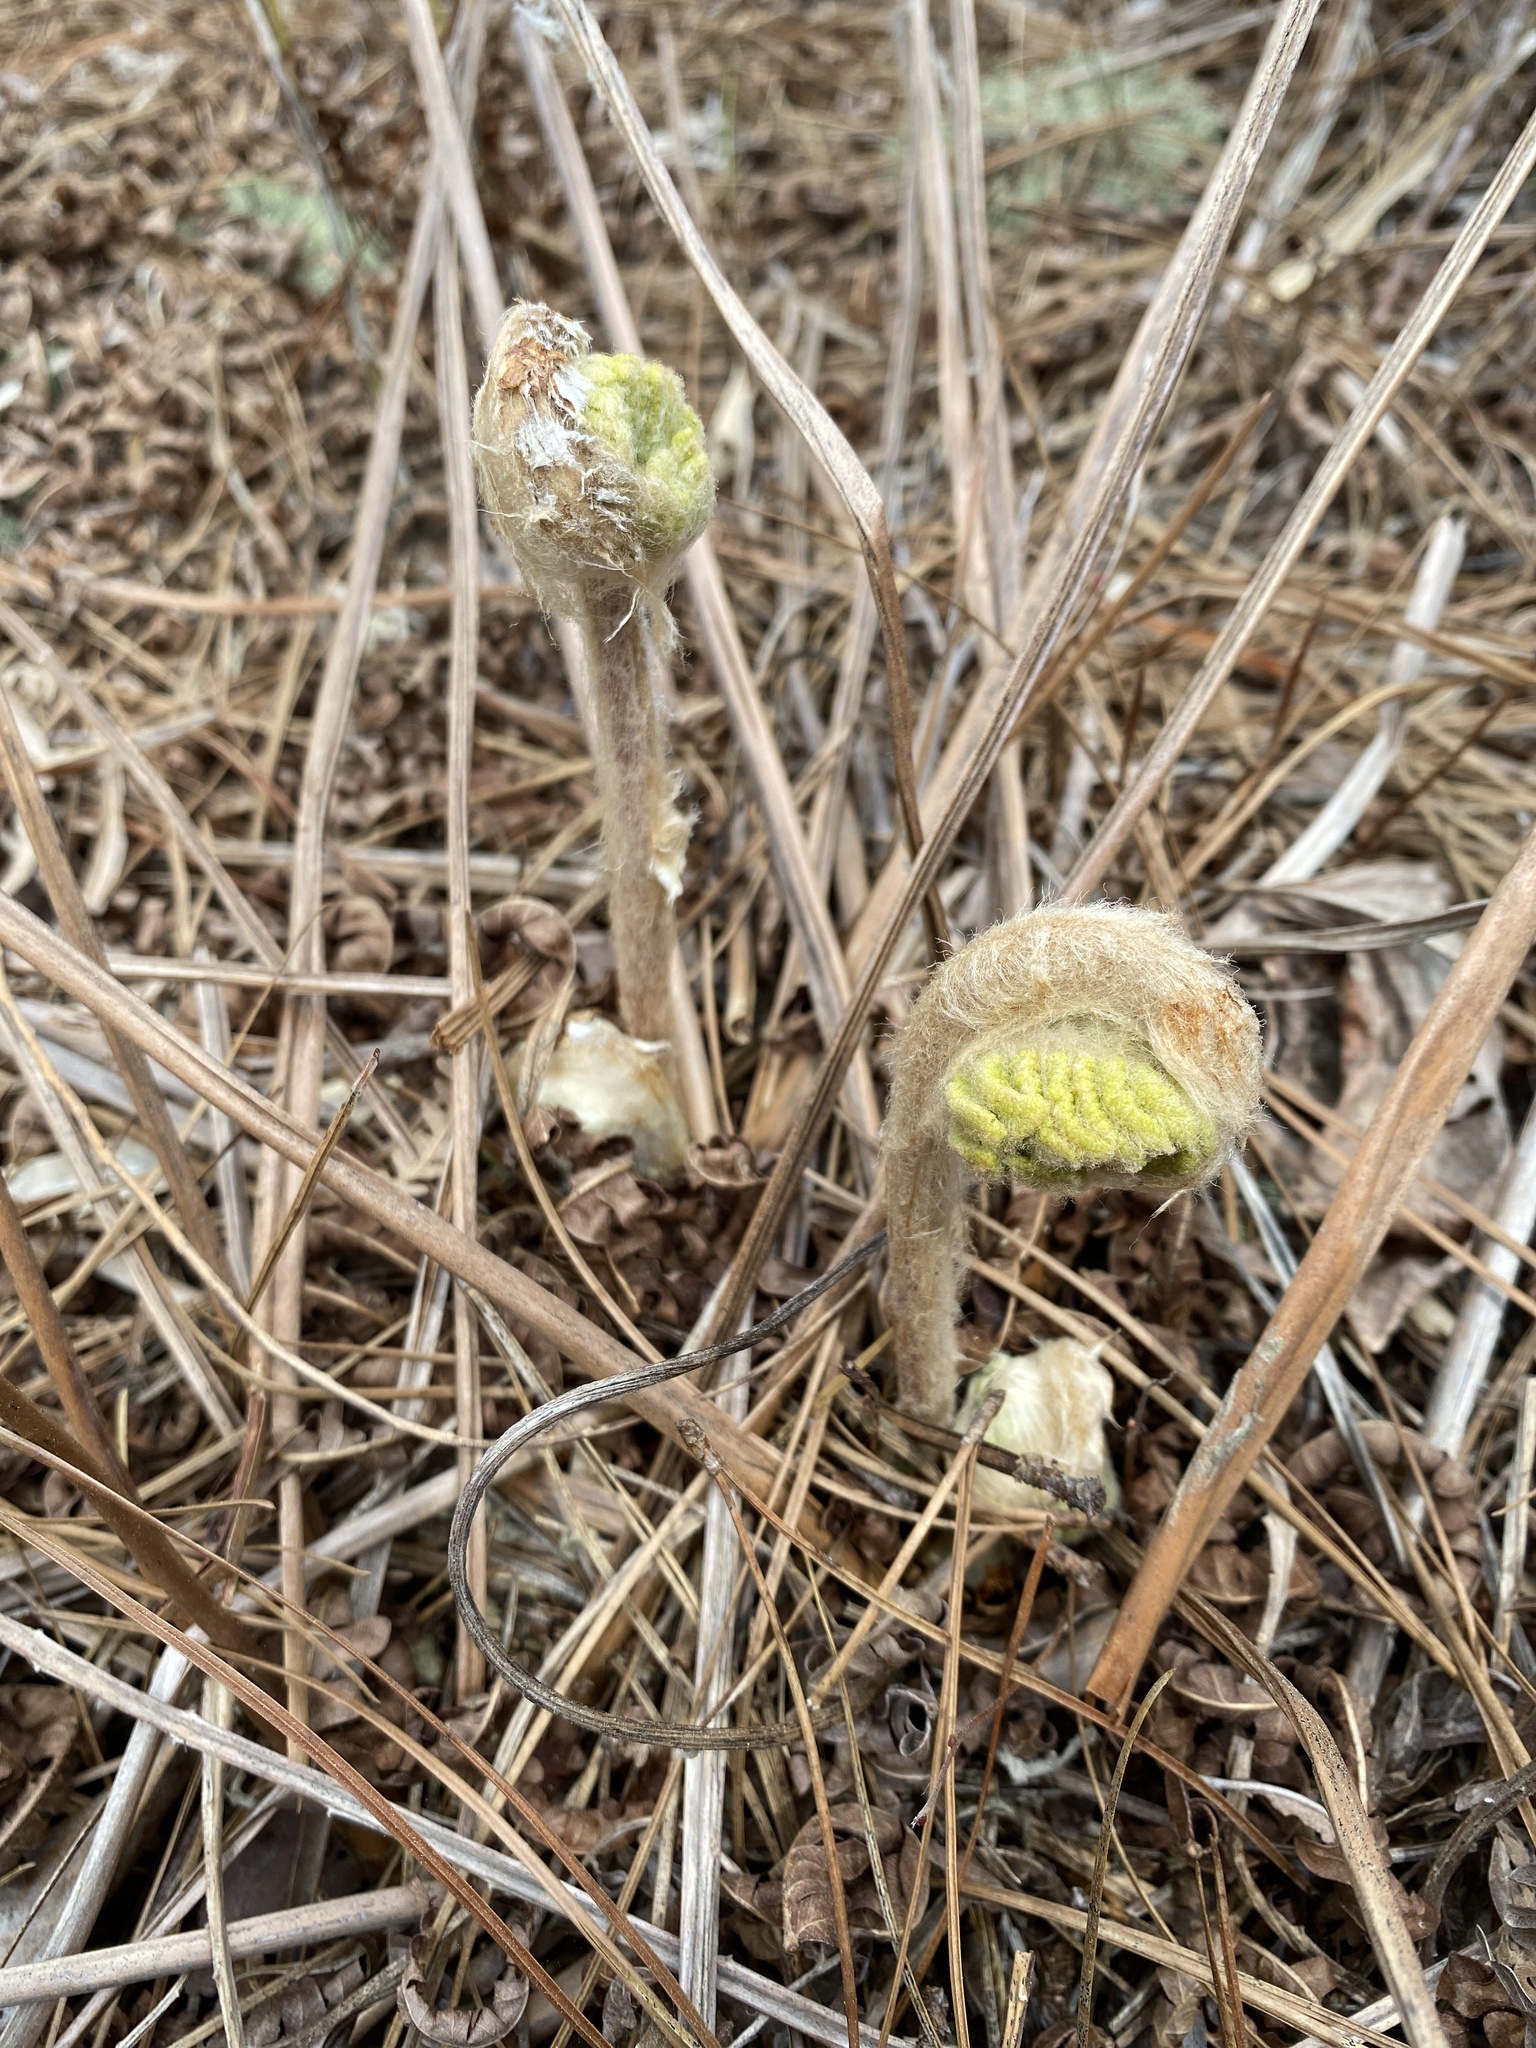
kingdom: Plantae
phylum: Tracheophyta
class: Polypodiopsida
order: Osmundales
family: Osmundaceae
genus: Osmundastrum
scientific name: Osmundastrum cinnamomeum
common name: Cinnamon fern
